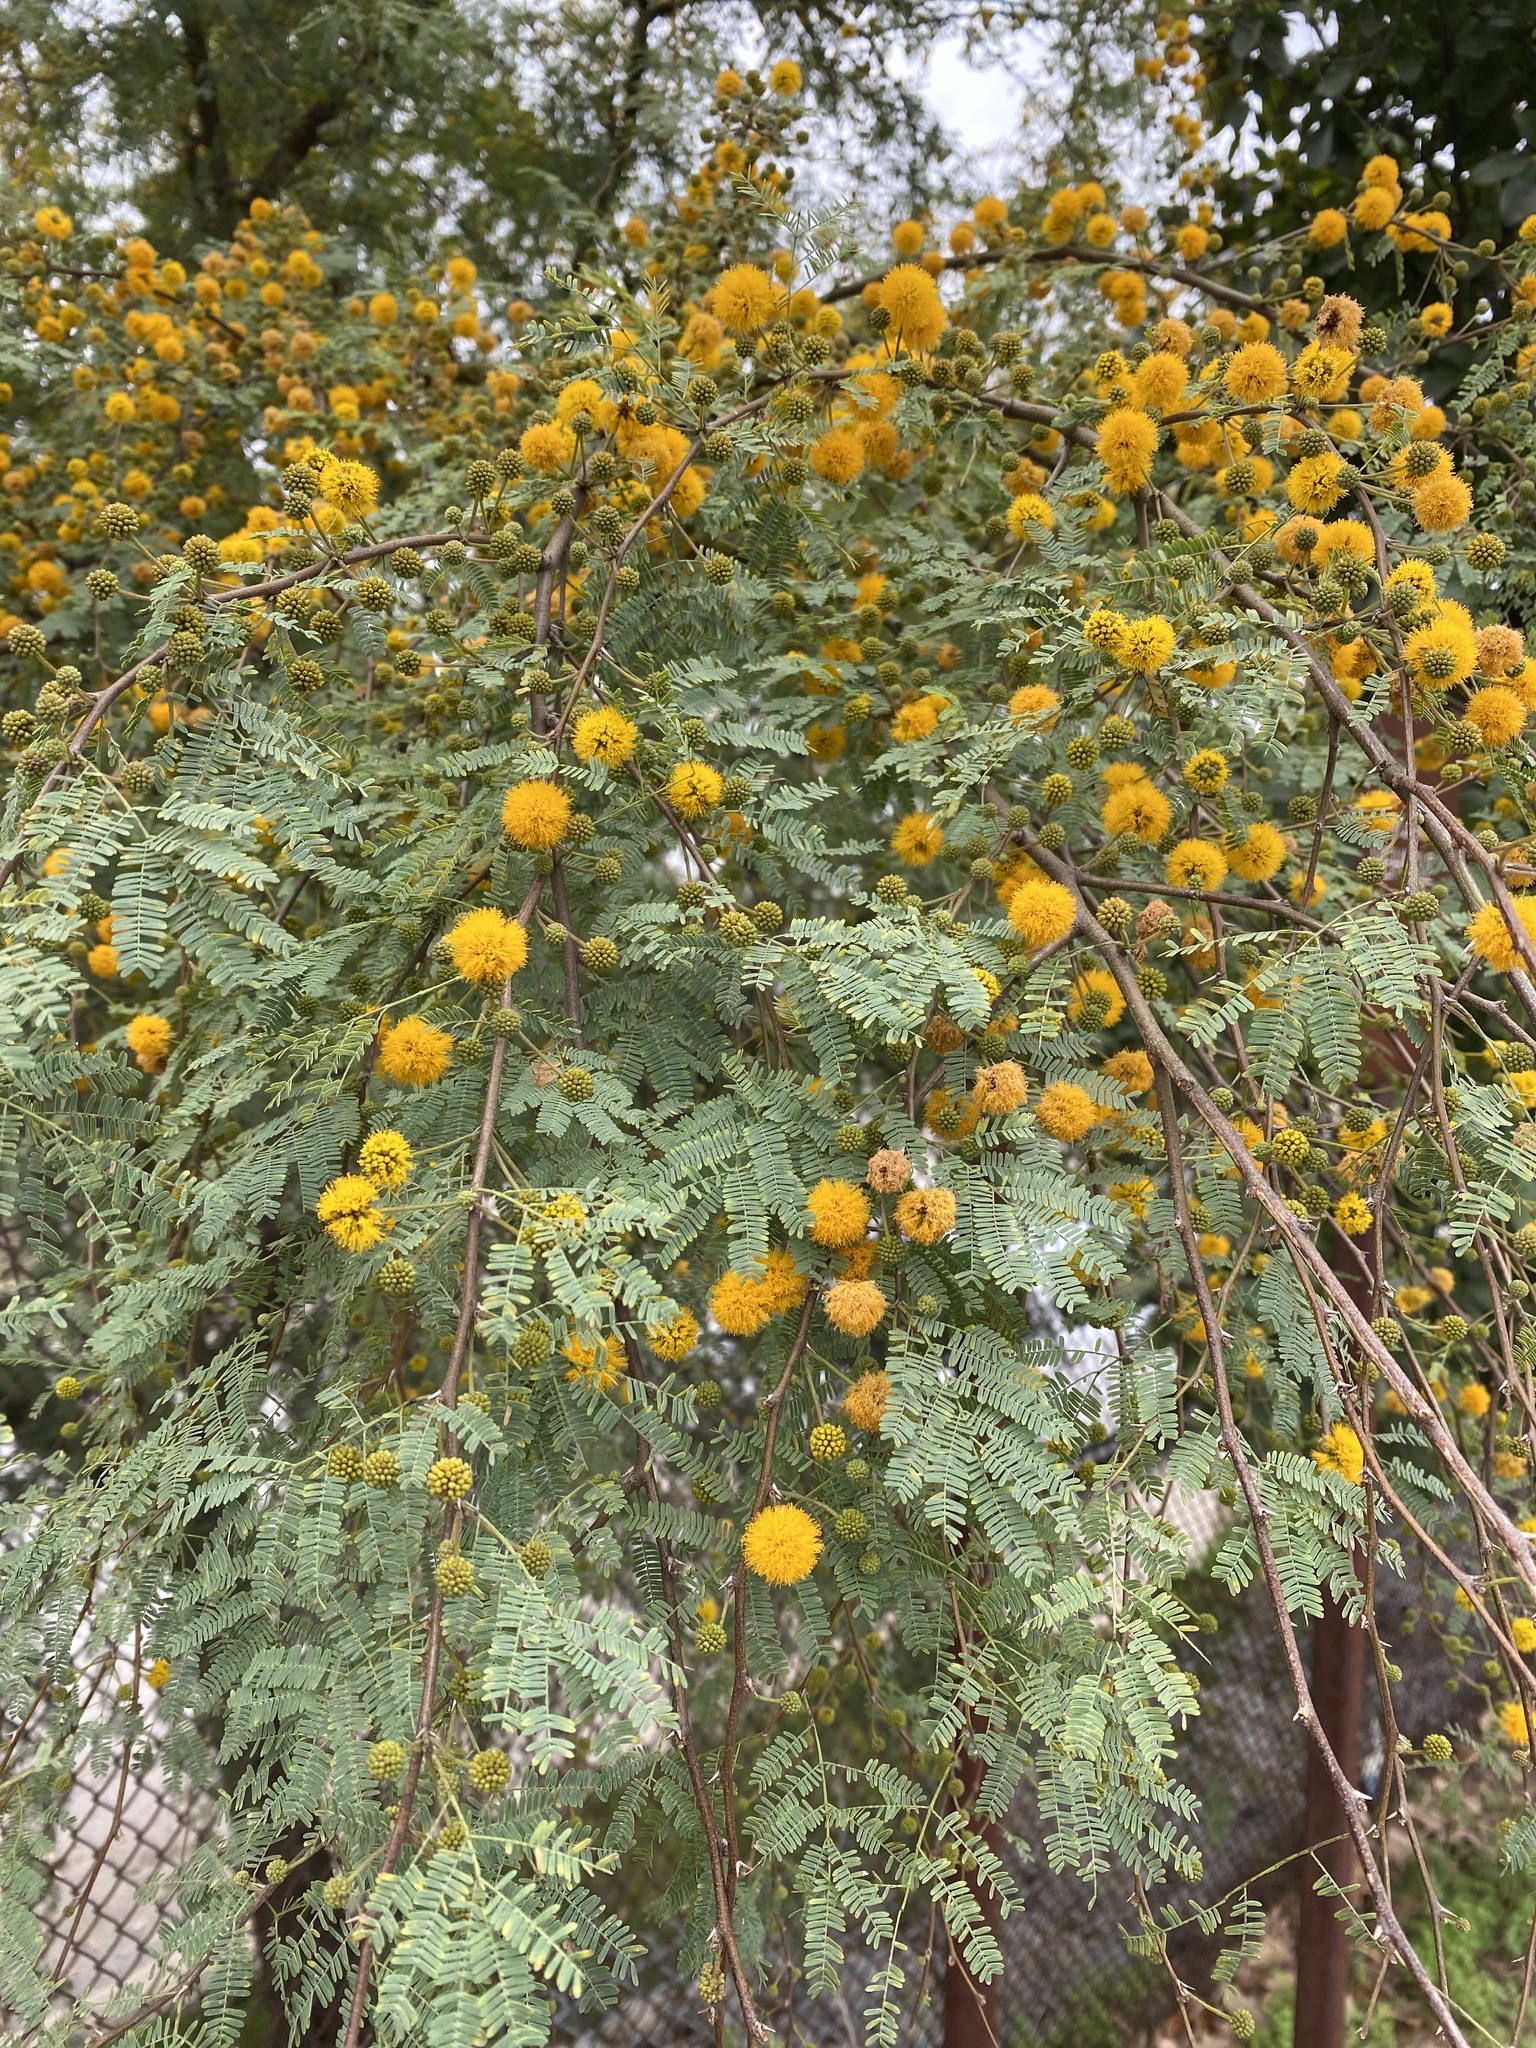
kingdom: Plantae
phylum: Tracheophyta
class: Magnoliopsida
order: Fabales
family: Fabaceae
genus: Vachellia
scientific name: Vachellia farnesiana
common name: Sweet acacia
